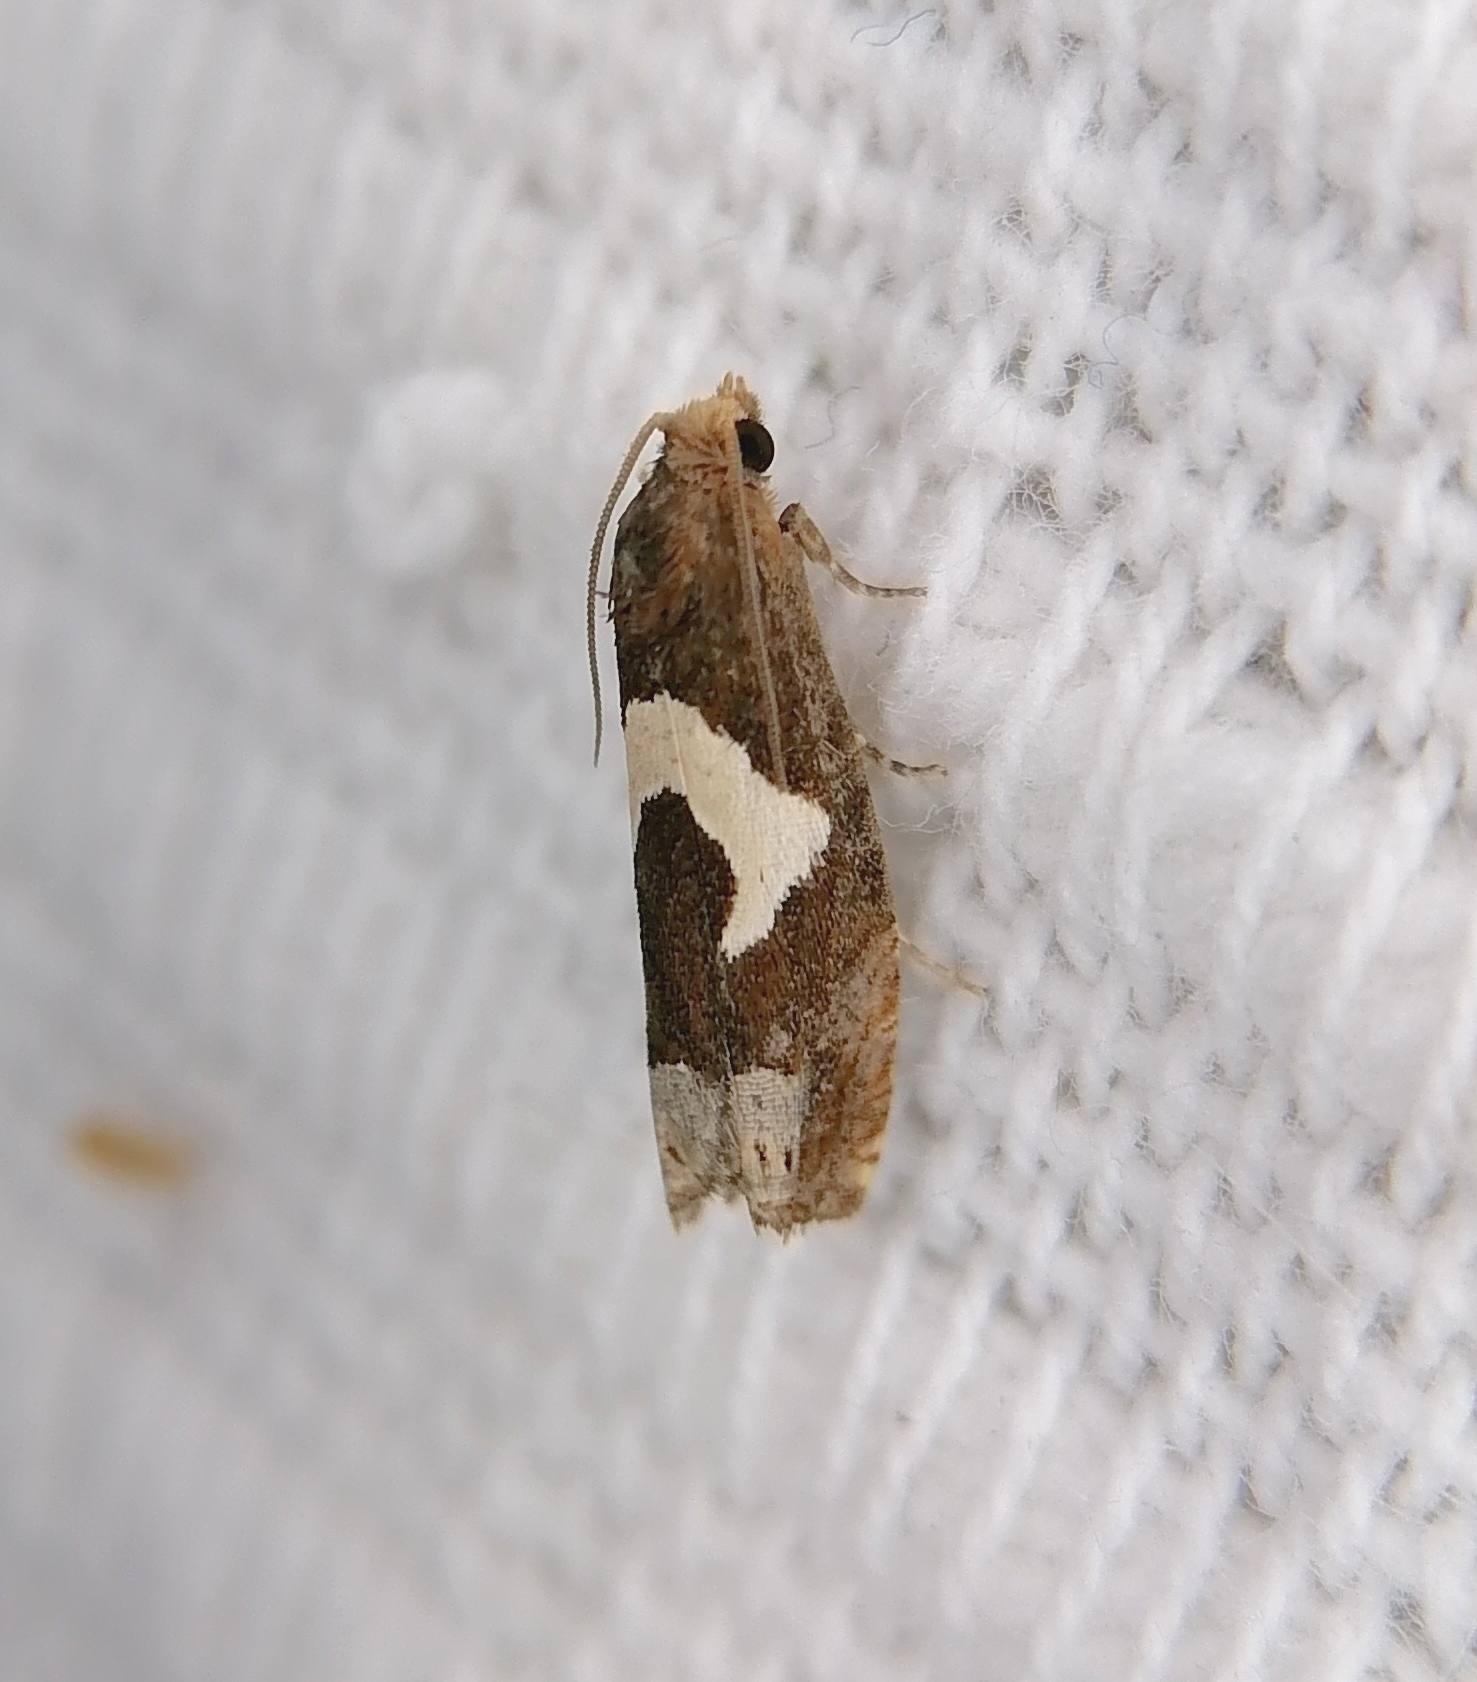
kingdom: Animalia
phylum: Arthropoda
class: Insecta
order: Lepidoptera
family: Tortricidae
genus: Epiblema
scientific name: Epiblema foenella
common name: White-foot bell
